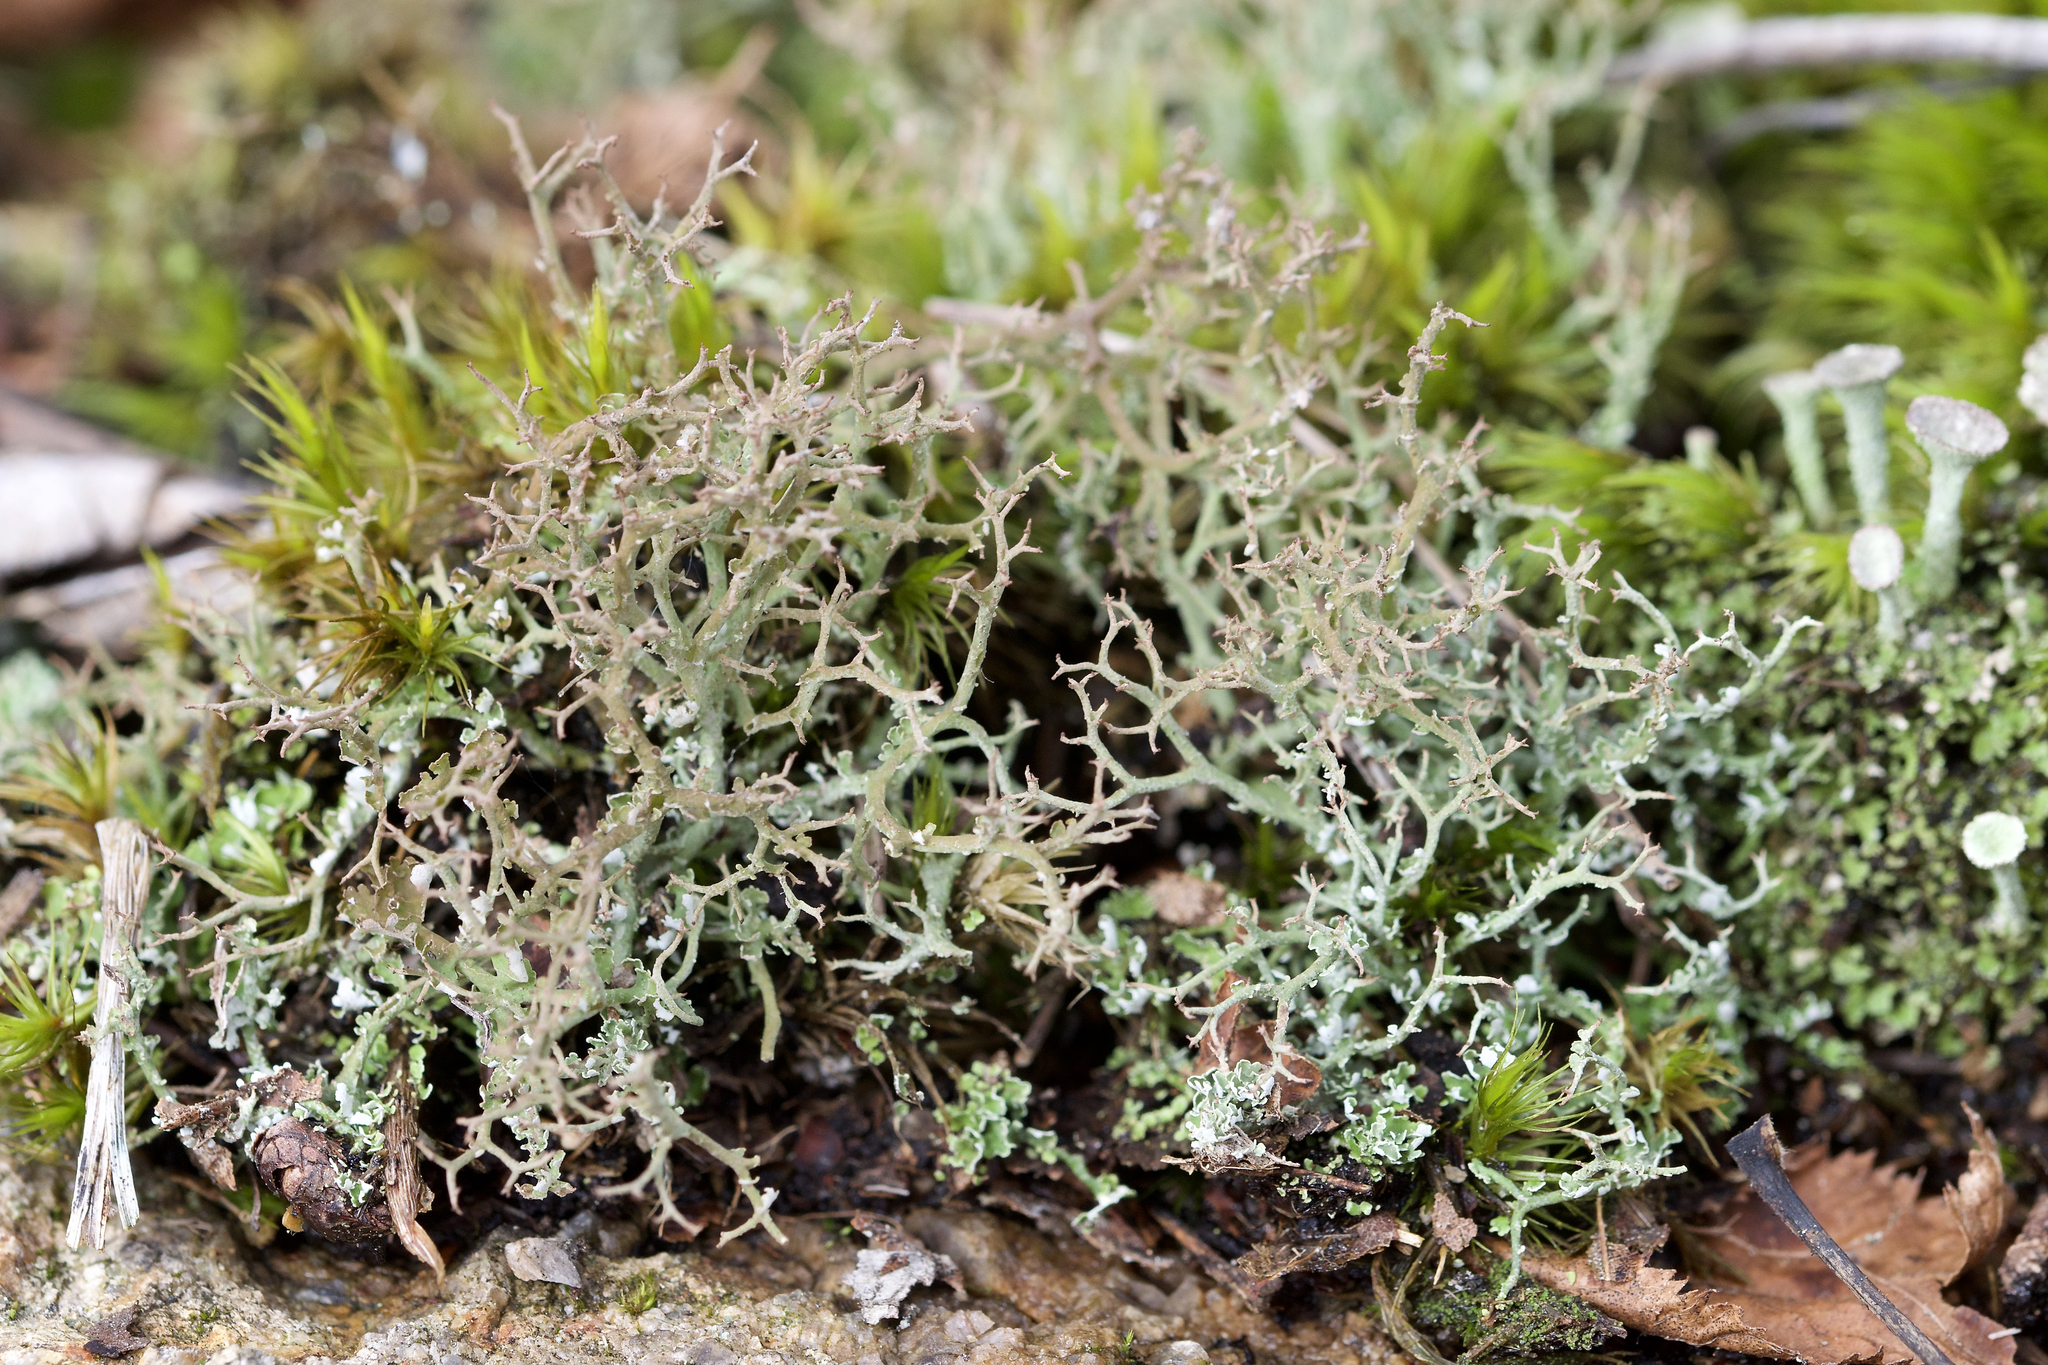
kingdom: Fungi
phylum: Ascomycota
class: Lecanoromycetes
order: Lecanorales
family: Cladoniaceae
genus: Cladonia
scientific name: Cladonia furcata
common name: Many-forked cladonia
